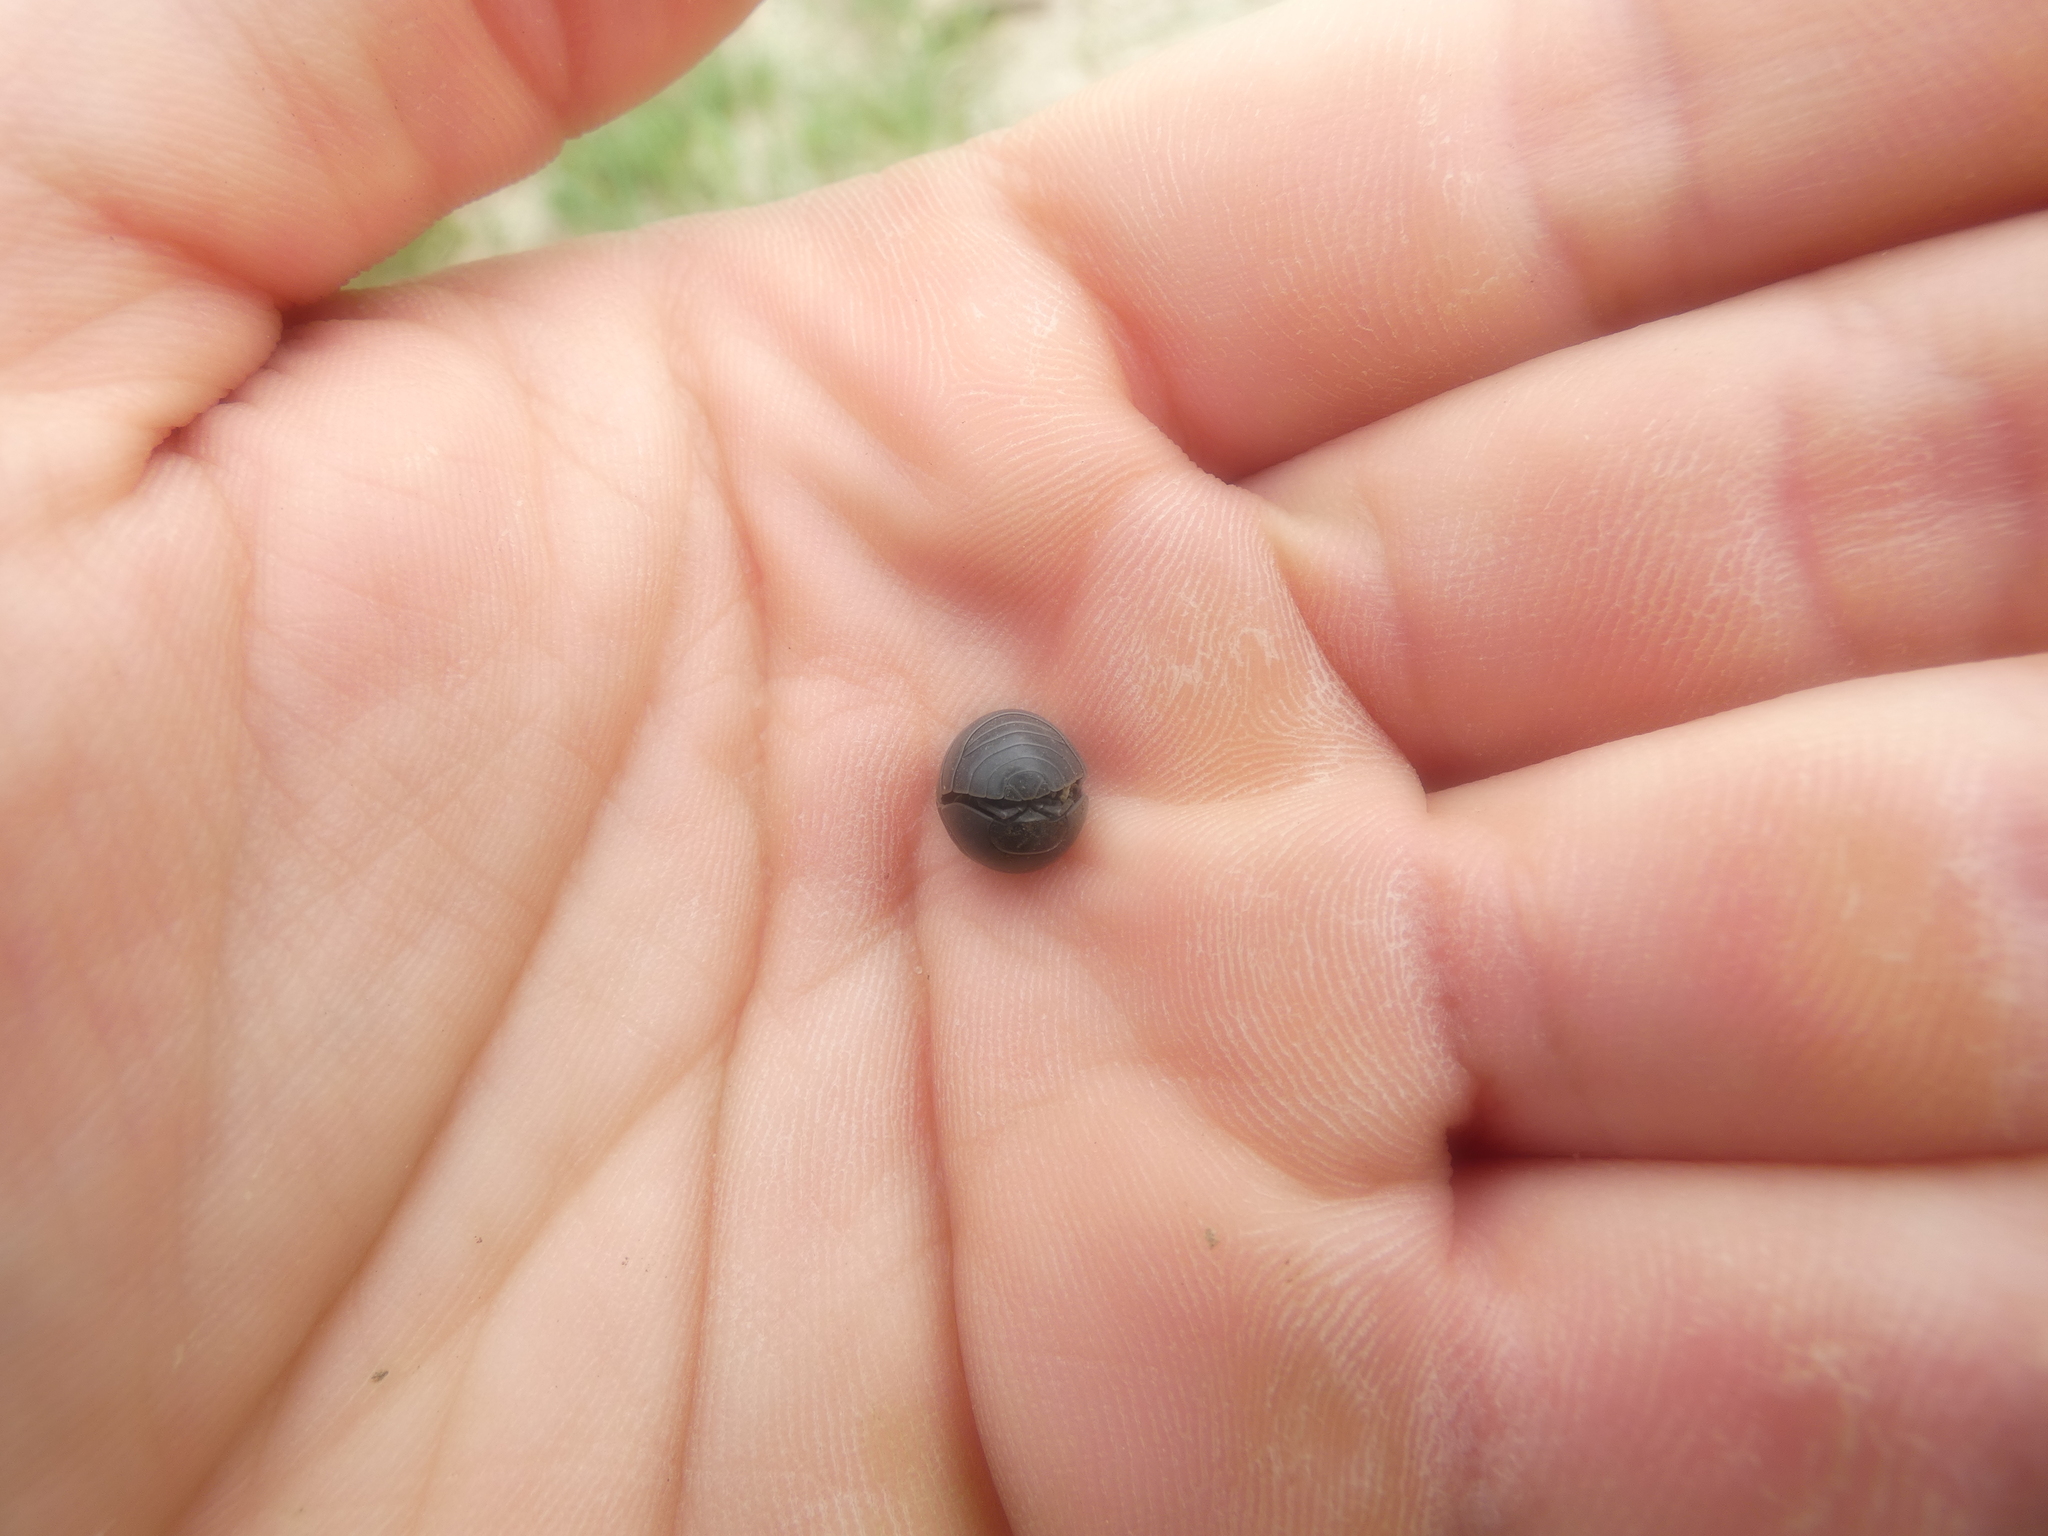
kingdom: Animalia
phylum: Arthropoda
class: Malacostraca
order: Isopoda
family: Armadillidiidae
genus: Armadillidium
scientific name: Armadillidium vulgare
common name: Common pill woodlouse
